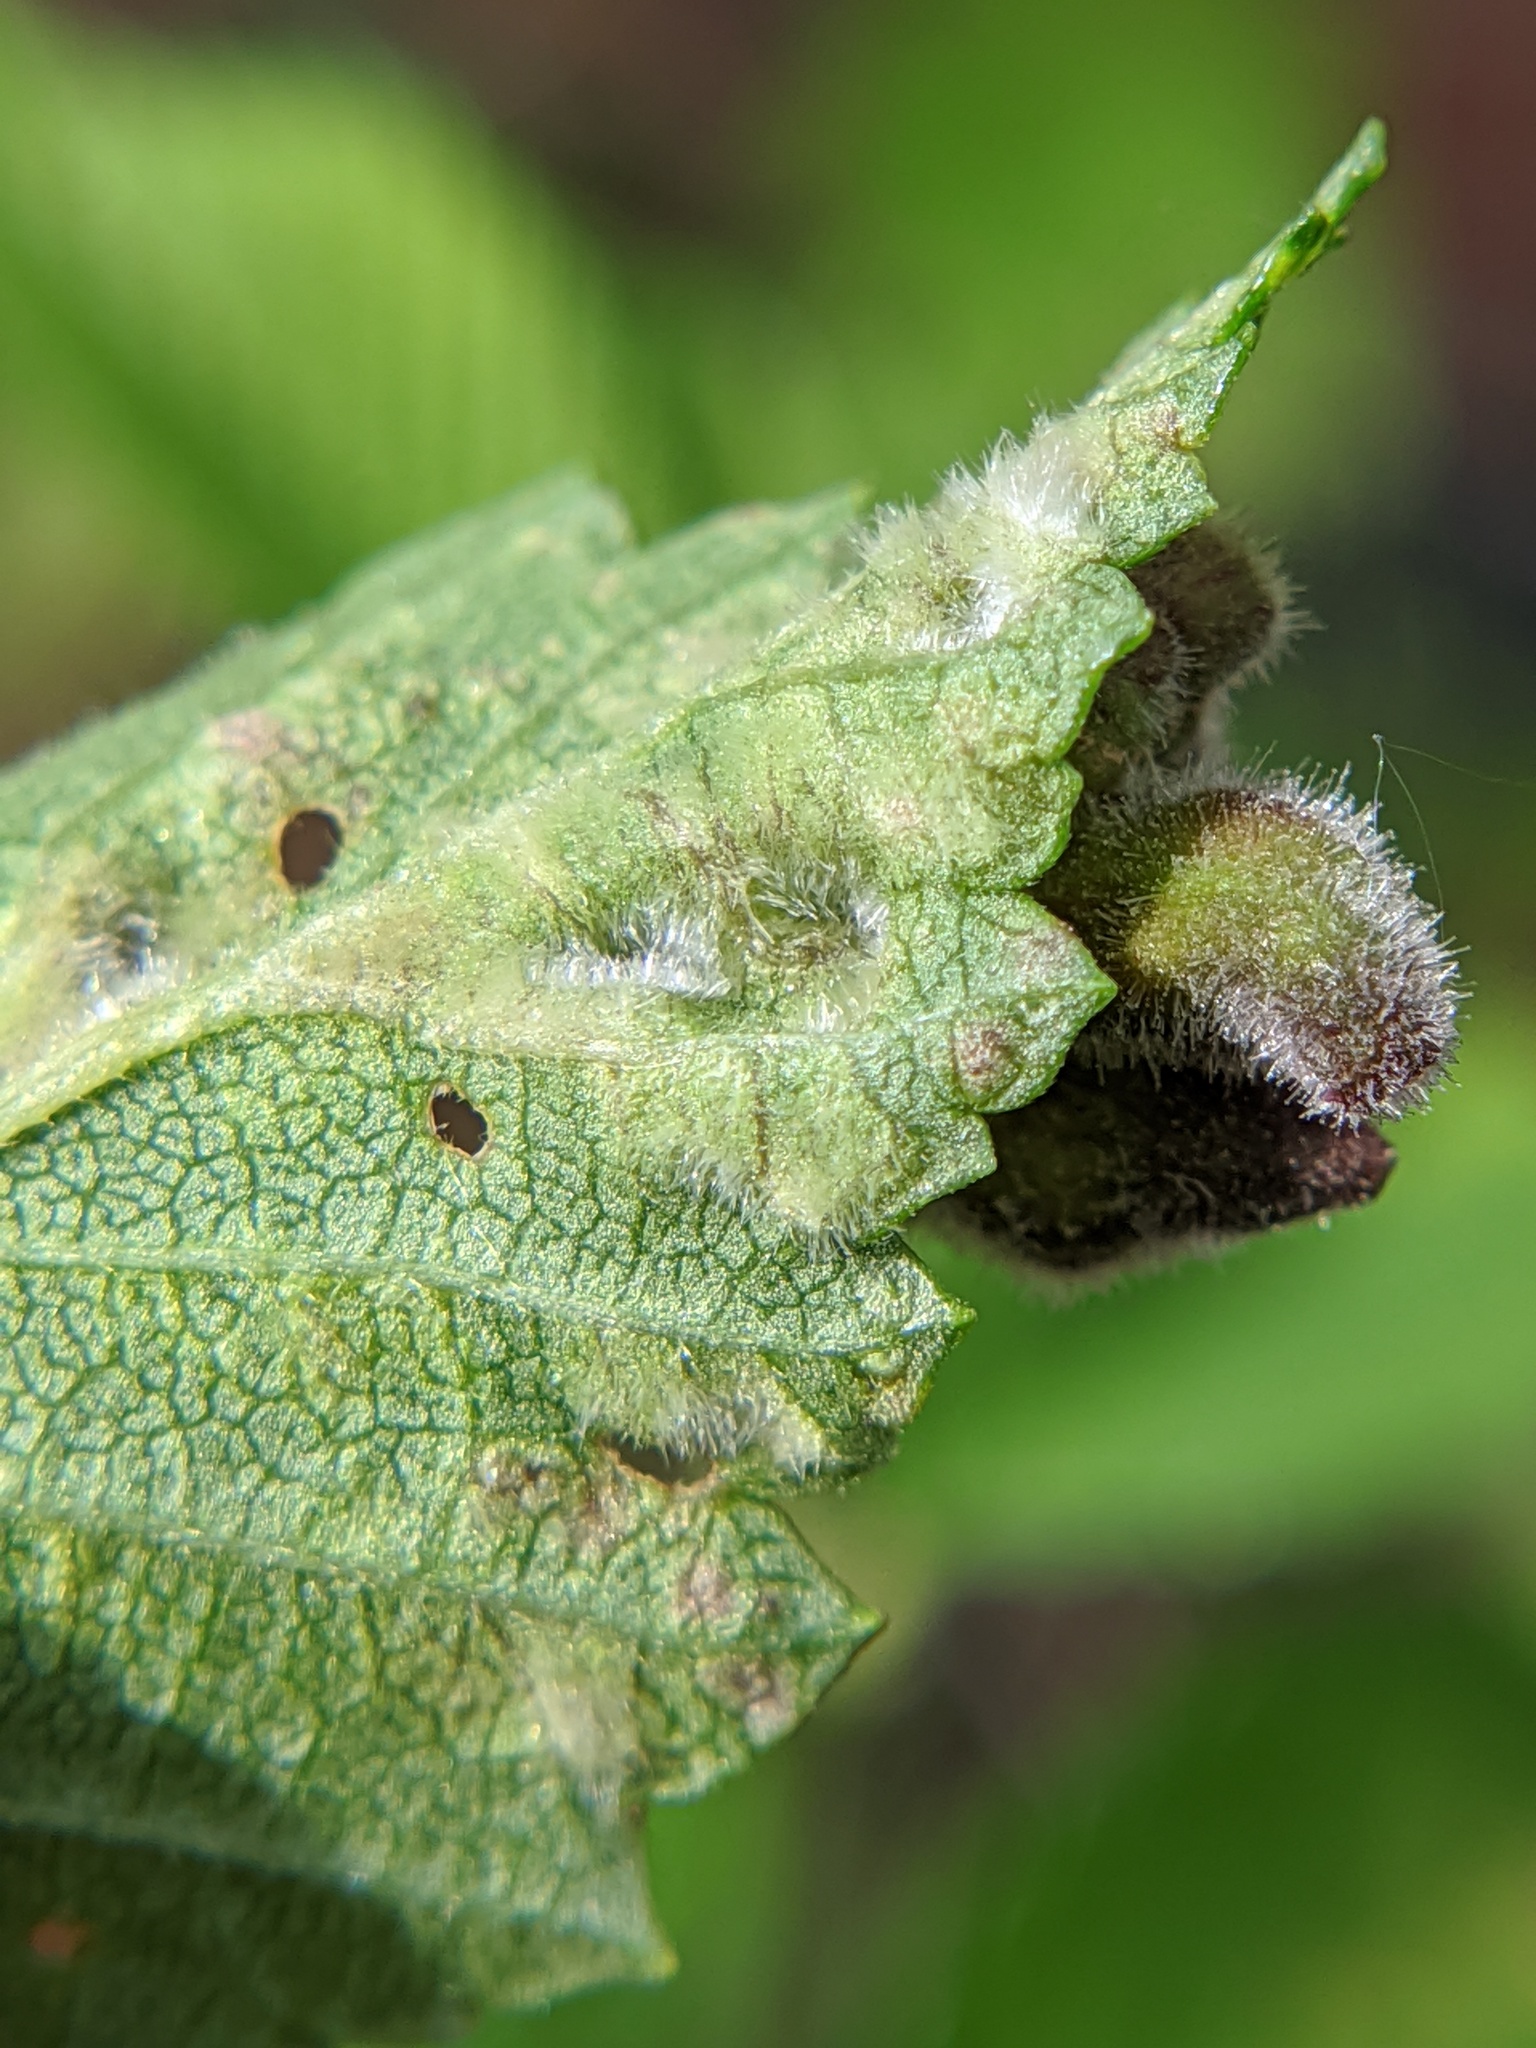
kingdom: Animalia
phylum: Arthropoda
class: Insecta
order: Hemiptera
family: Aphididae
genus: Tetraneura
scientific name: Tetraneura nigriabdominalis
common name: Aphid
